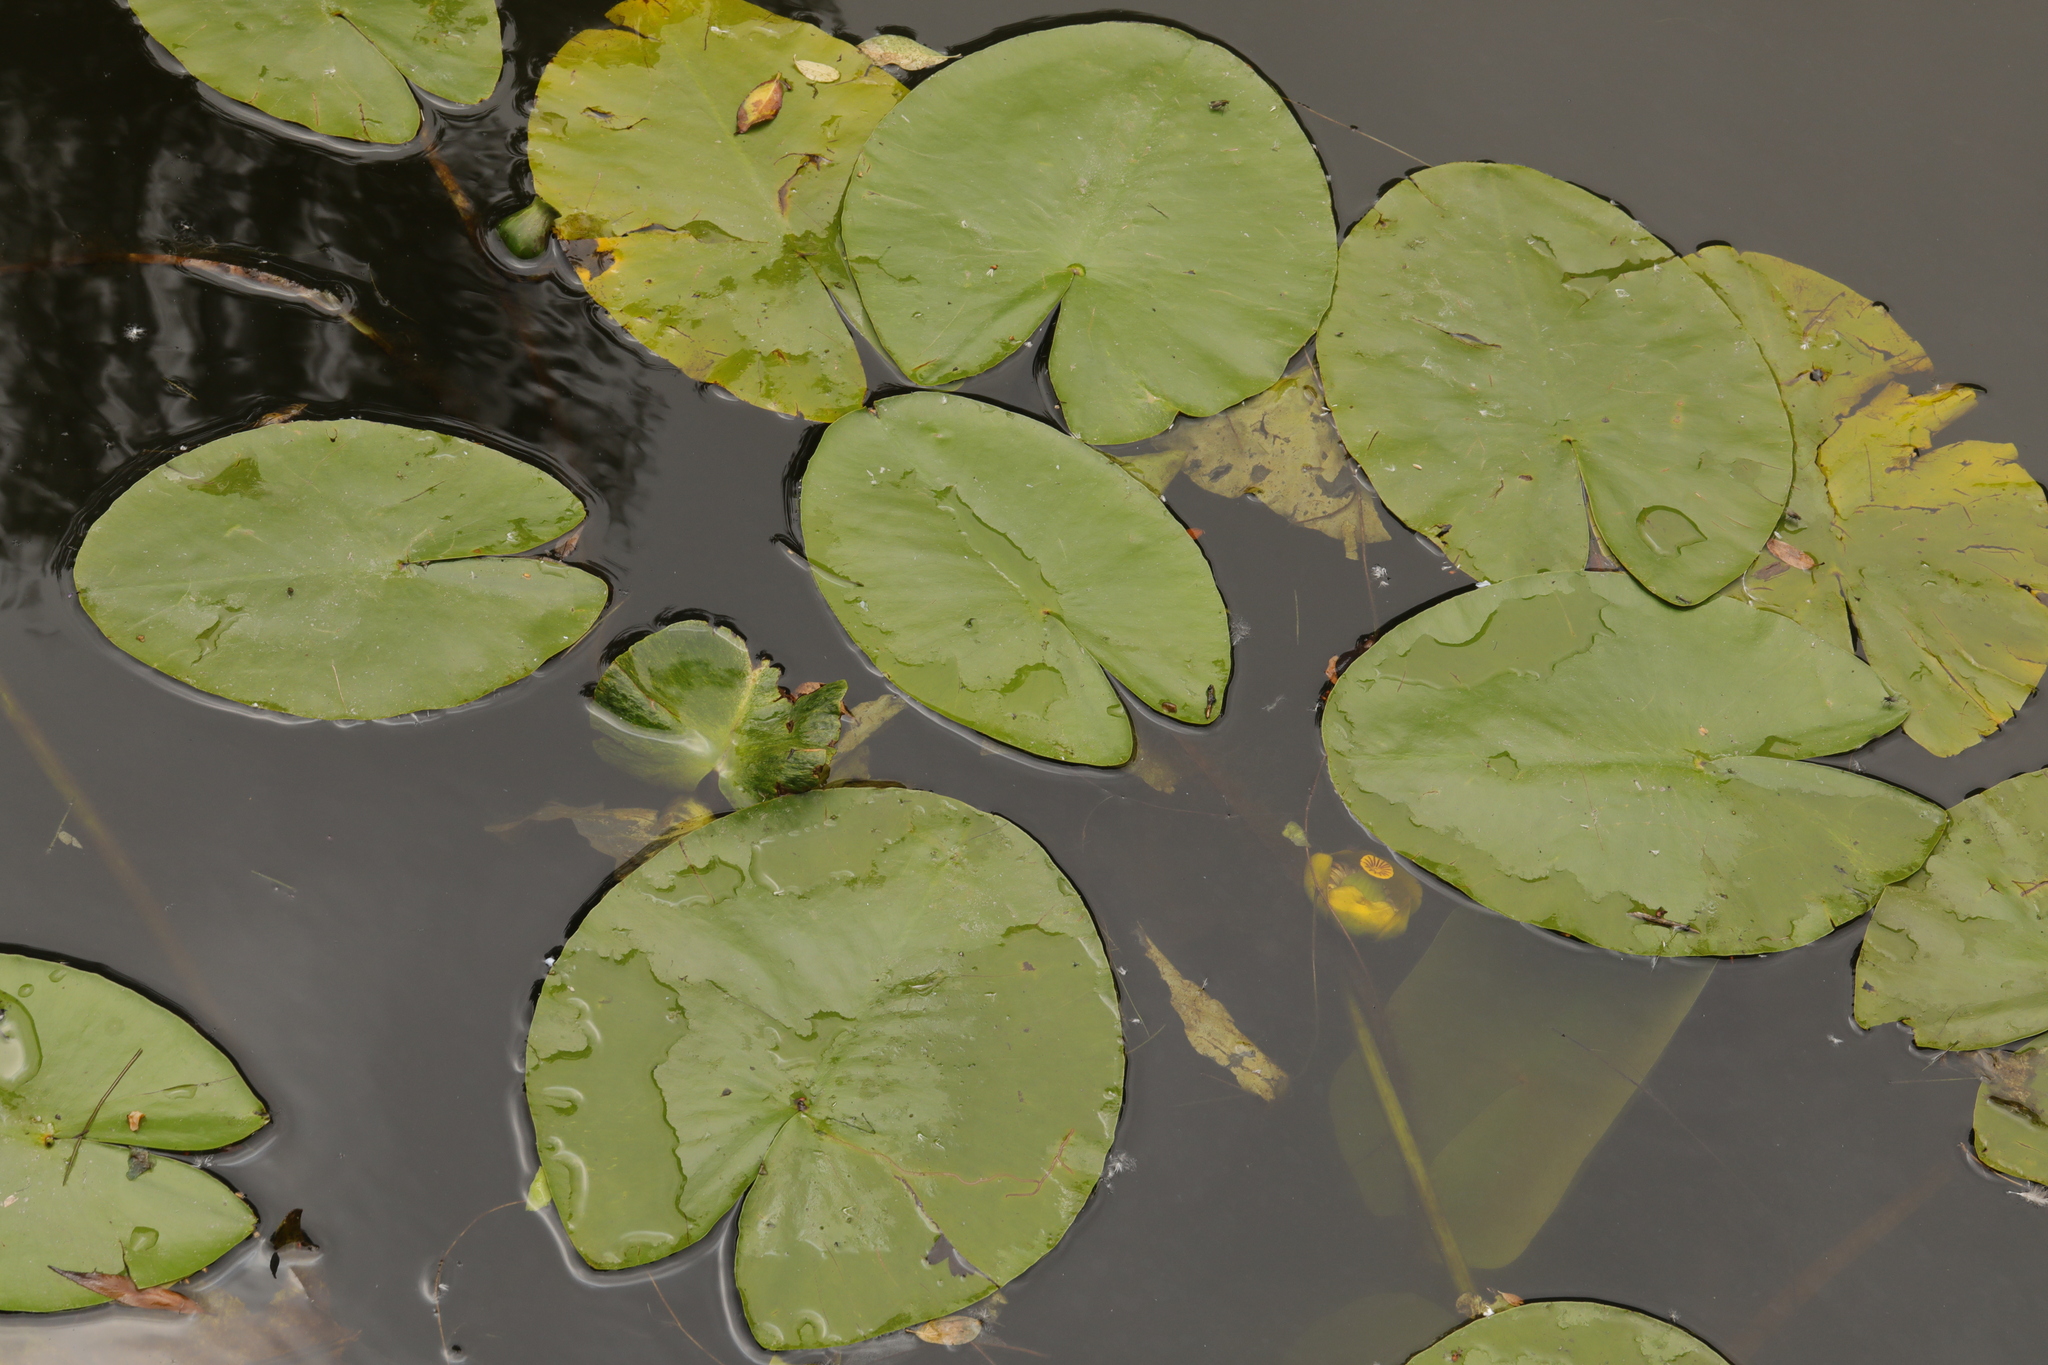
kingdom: Plantae
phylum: Tracheophyta
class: Magnoliopsida
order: Nymphaeales
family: Nymphaeaceae
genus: Nuphar
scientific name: Nuphar lutea
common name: Yellow water-lily
